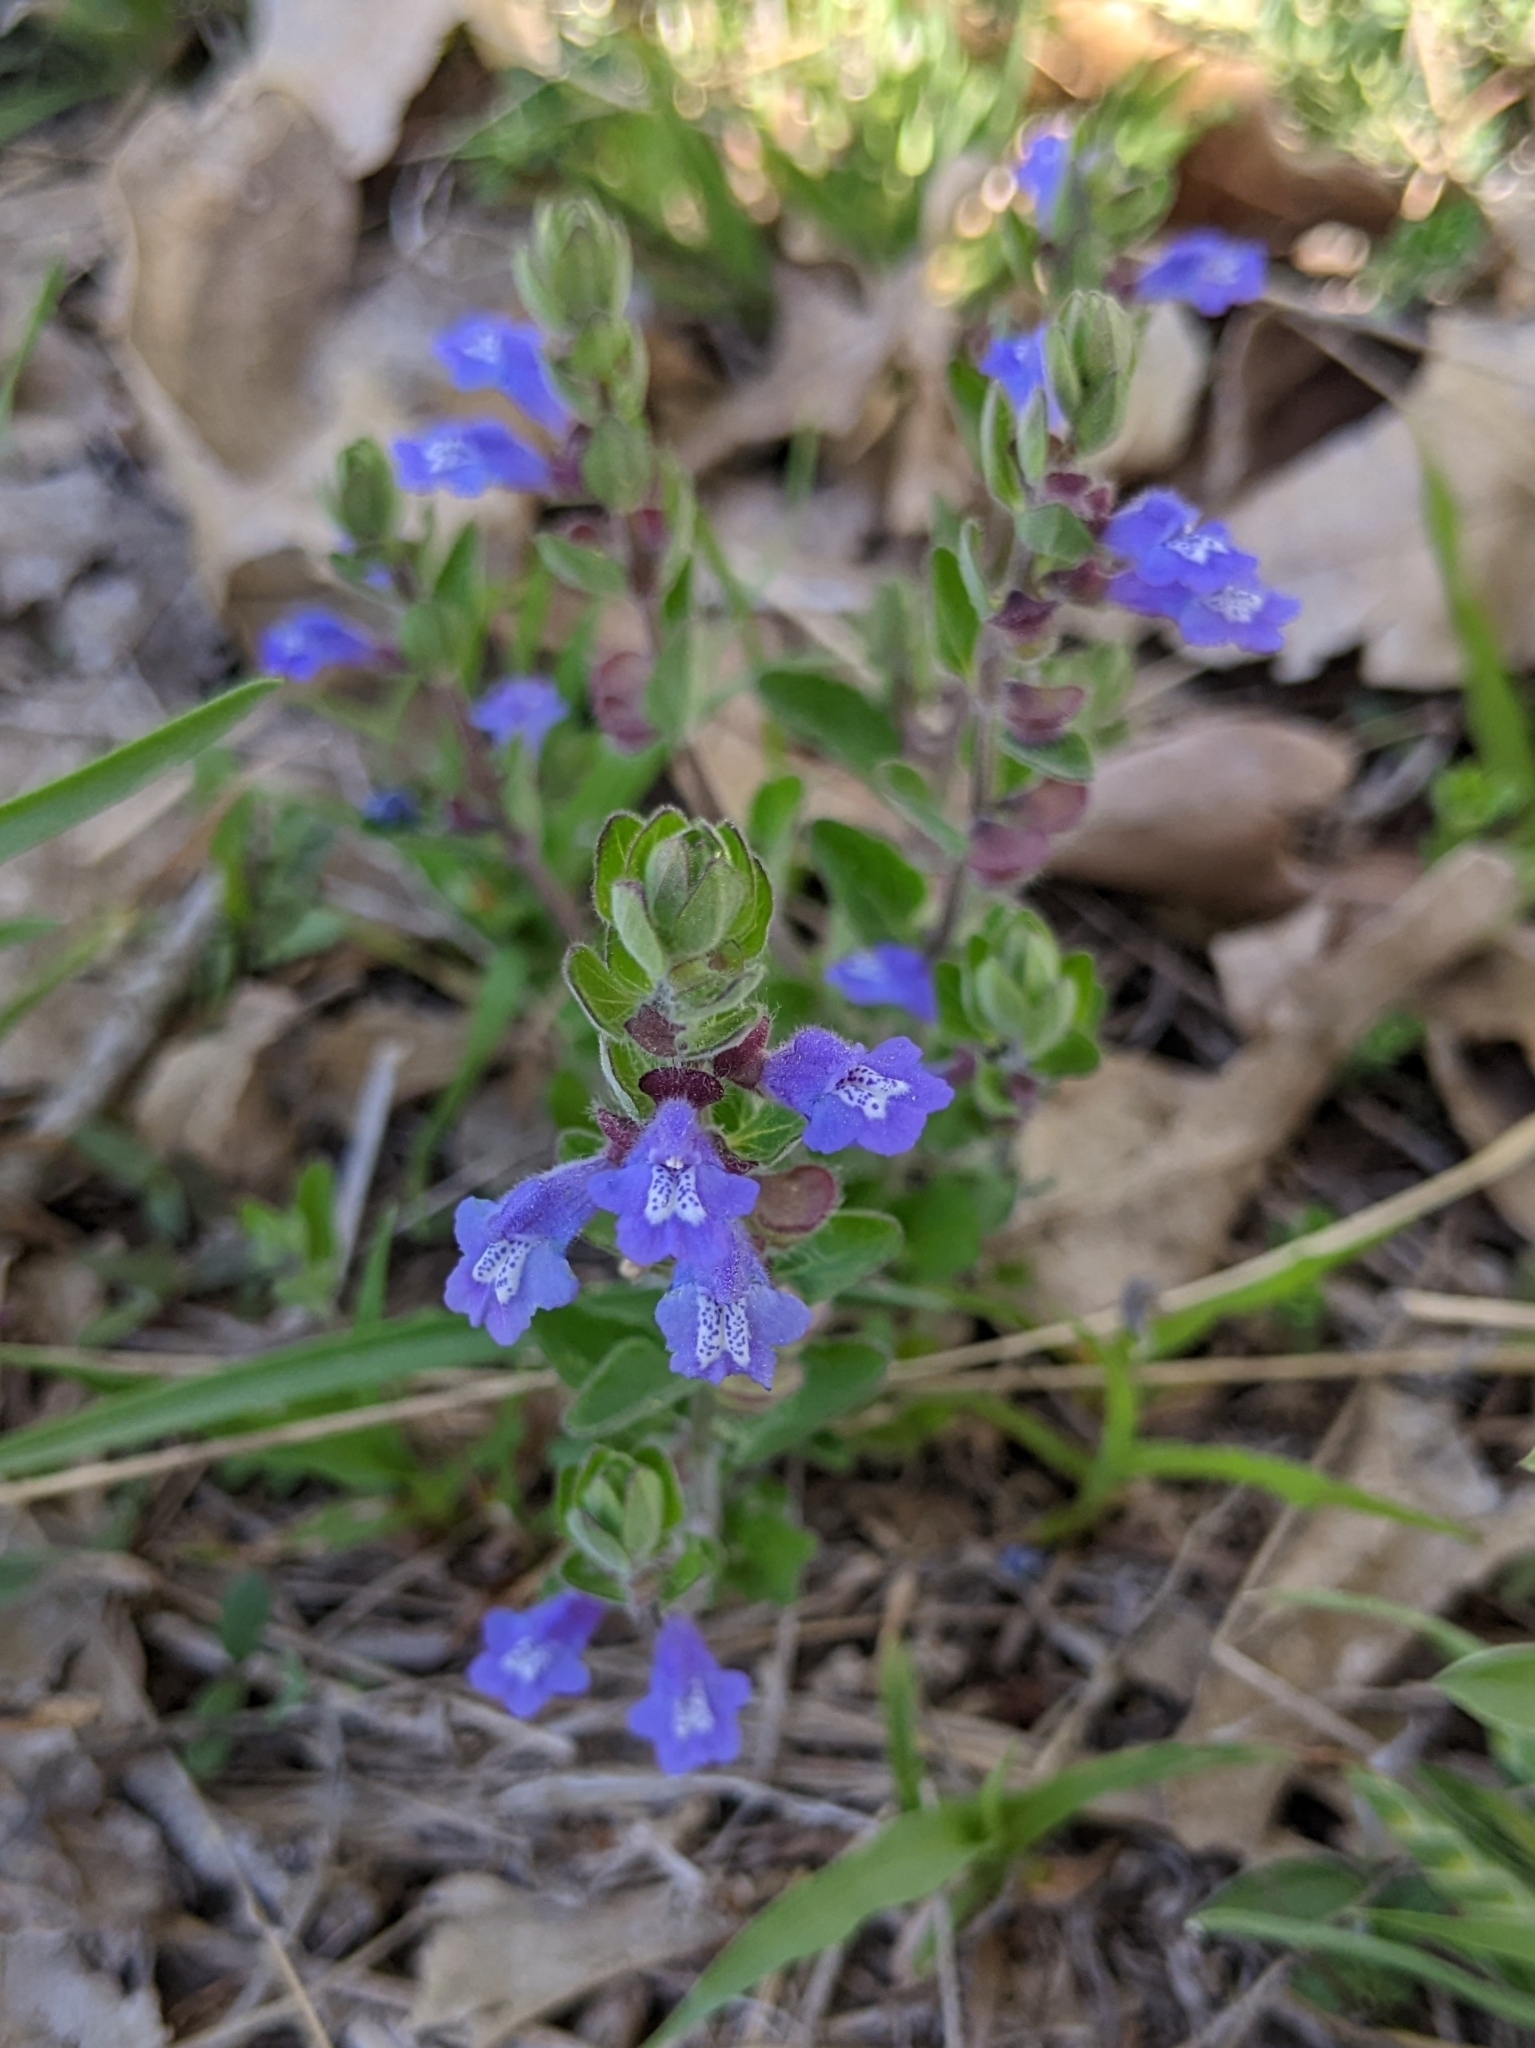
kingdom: Plantae
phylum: Tracheophyta
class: Magnoliopsida
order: Lamiales
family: Lamiaceae
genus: Scutellaria
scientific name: Scutellaria drummondii
